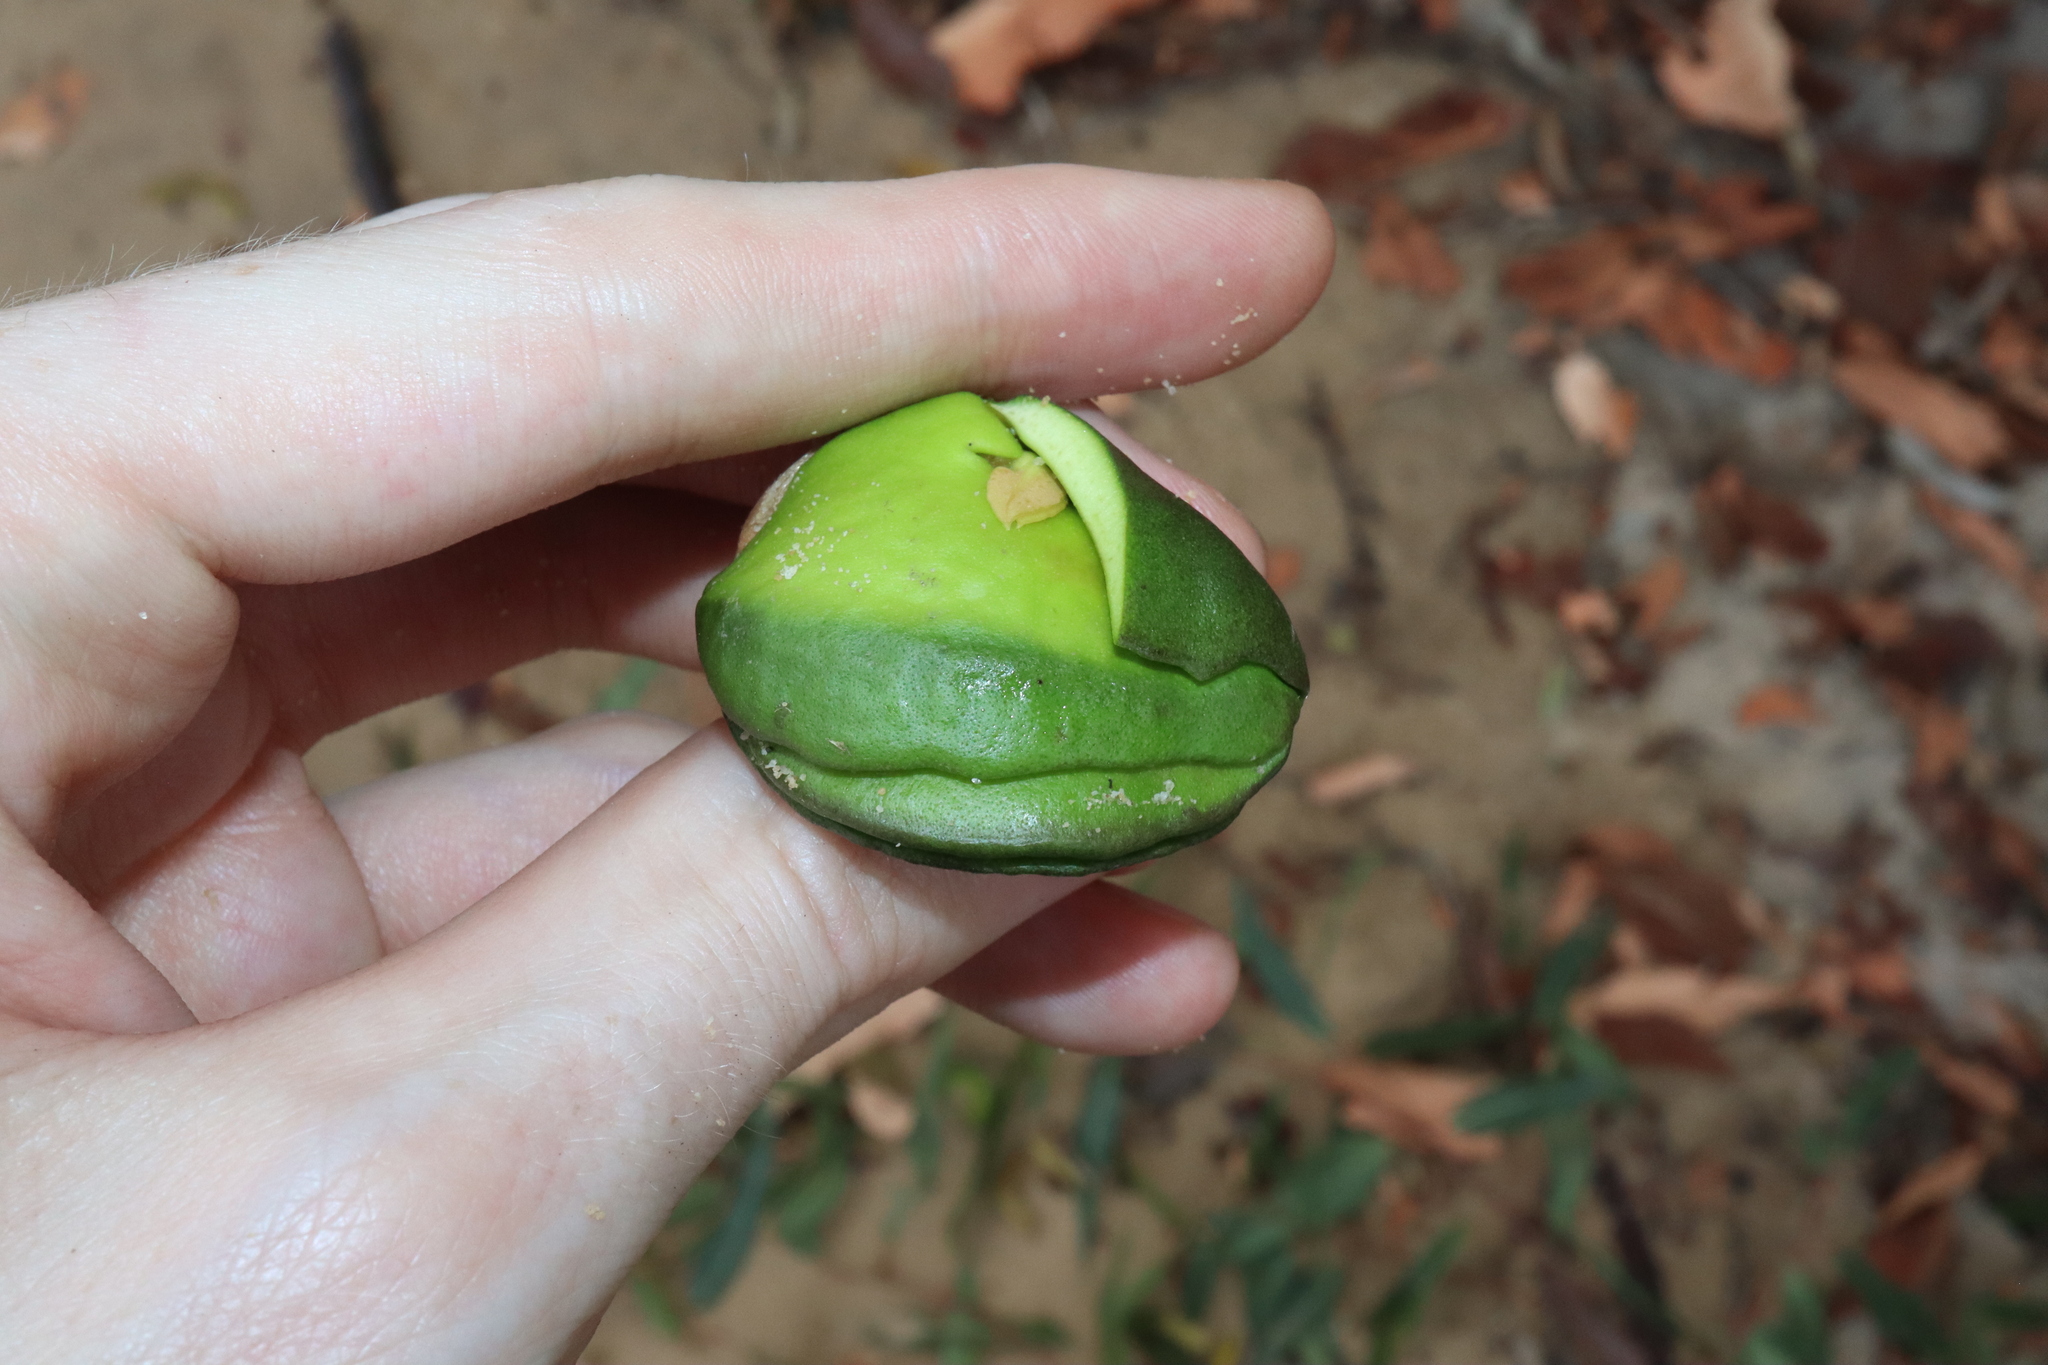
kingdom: Plantae
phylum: Tracheophyta
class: Magnoliopsida
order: Lamiales
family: Acanthaceae
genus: Avicennia
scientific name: Avicennia marina
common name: Gray mangrove
